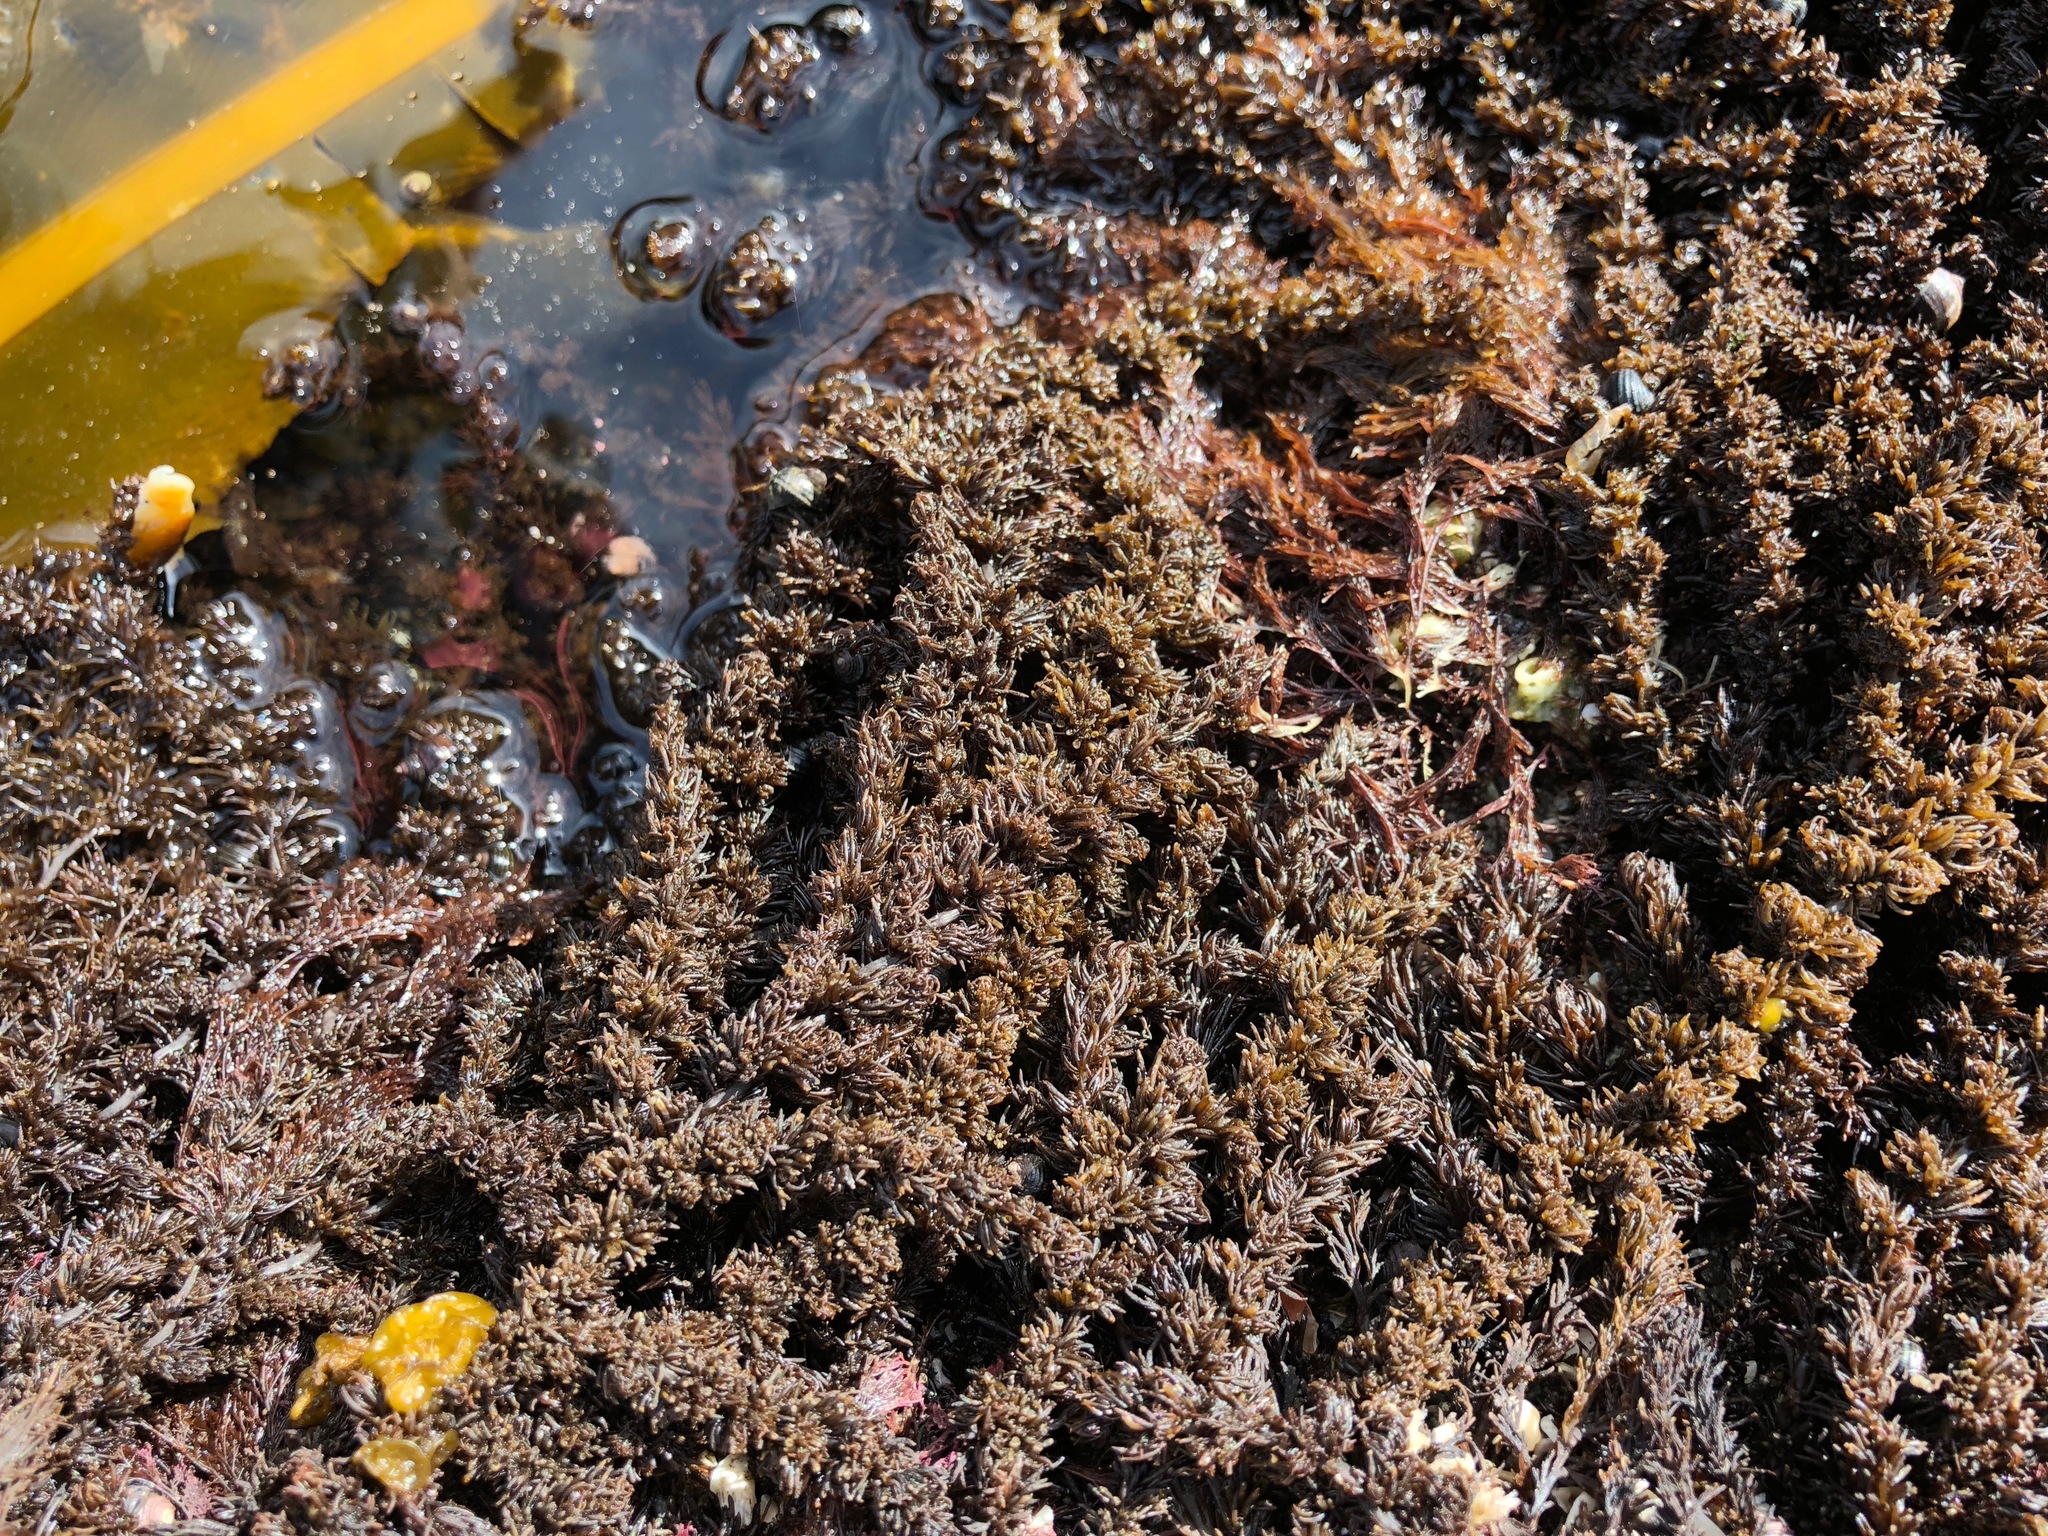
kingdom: Plantae
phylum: Rhodophyta
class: Florideophyceae
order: Ceramiales
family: Rhodomelaceae
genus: Neorhodomela
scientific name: Neorhodomela larix
